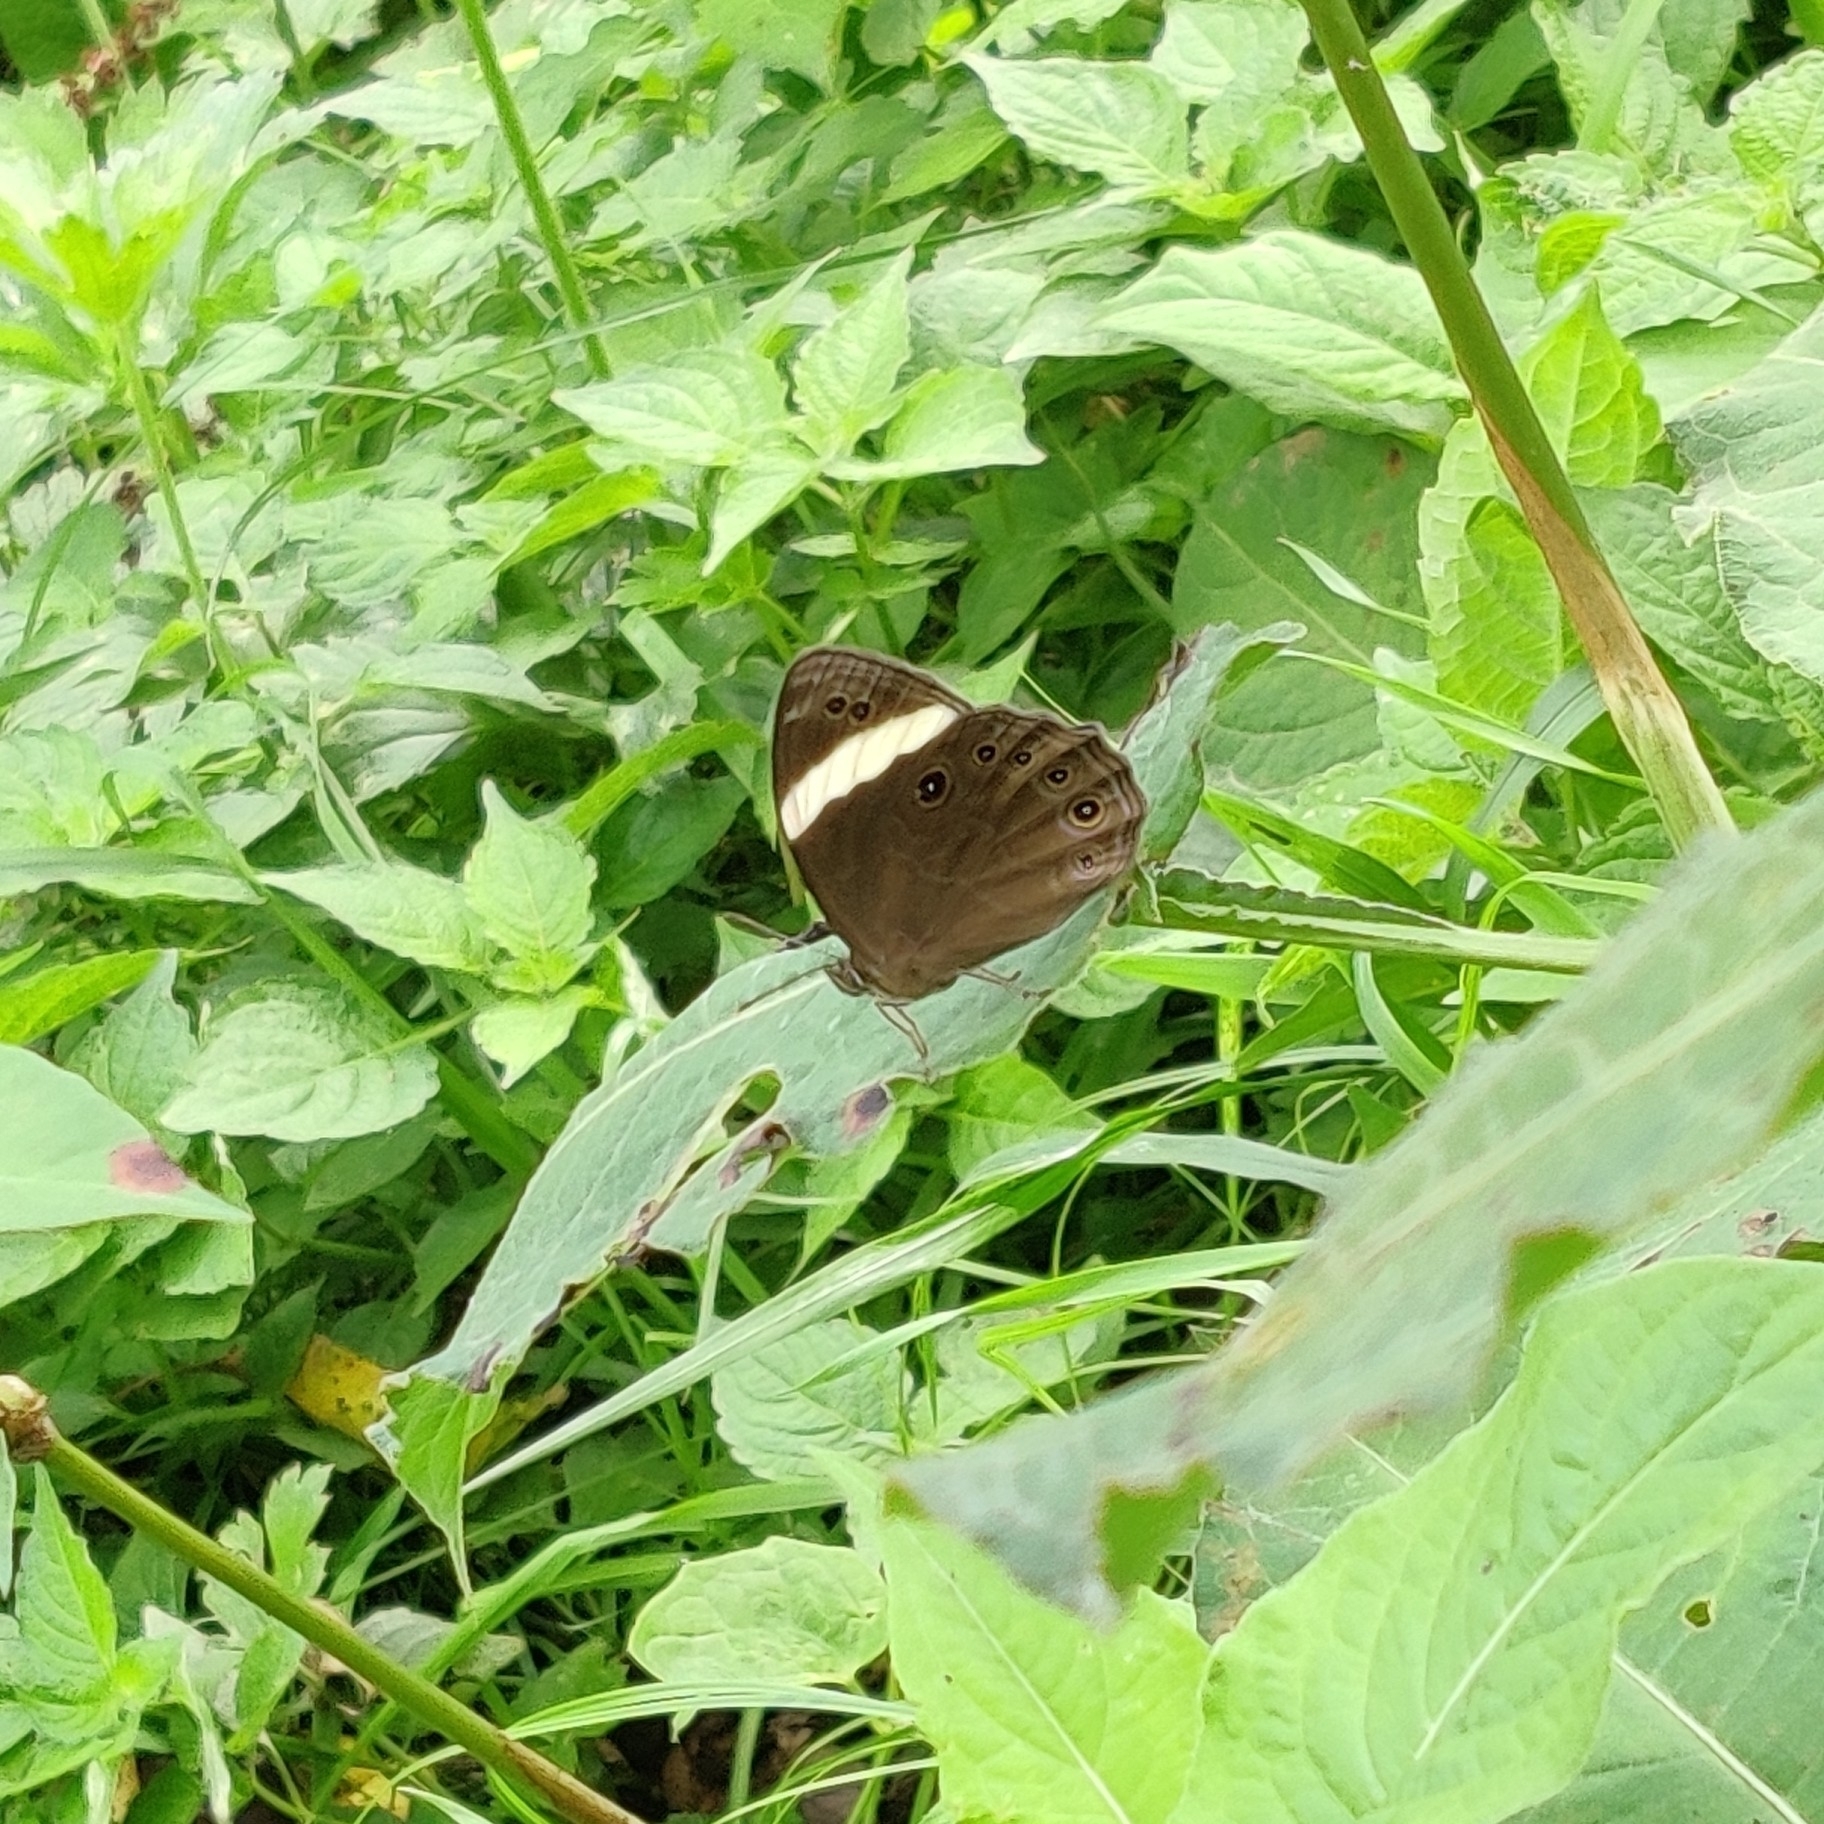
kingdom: Animalia
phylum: Arthropoda
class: Insecta
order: Lepidoptera
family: Nymphalidae
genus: Lethe
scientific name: Lethe verma
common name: Straight-banded treebrown
